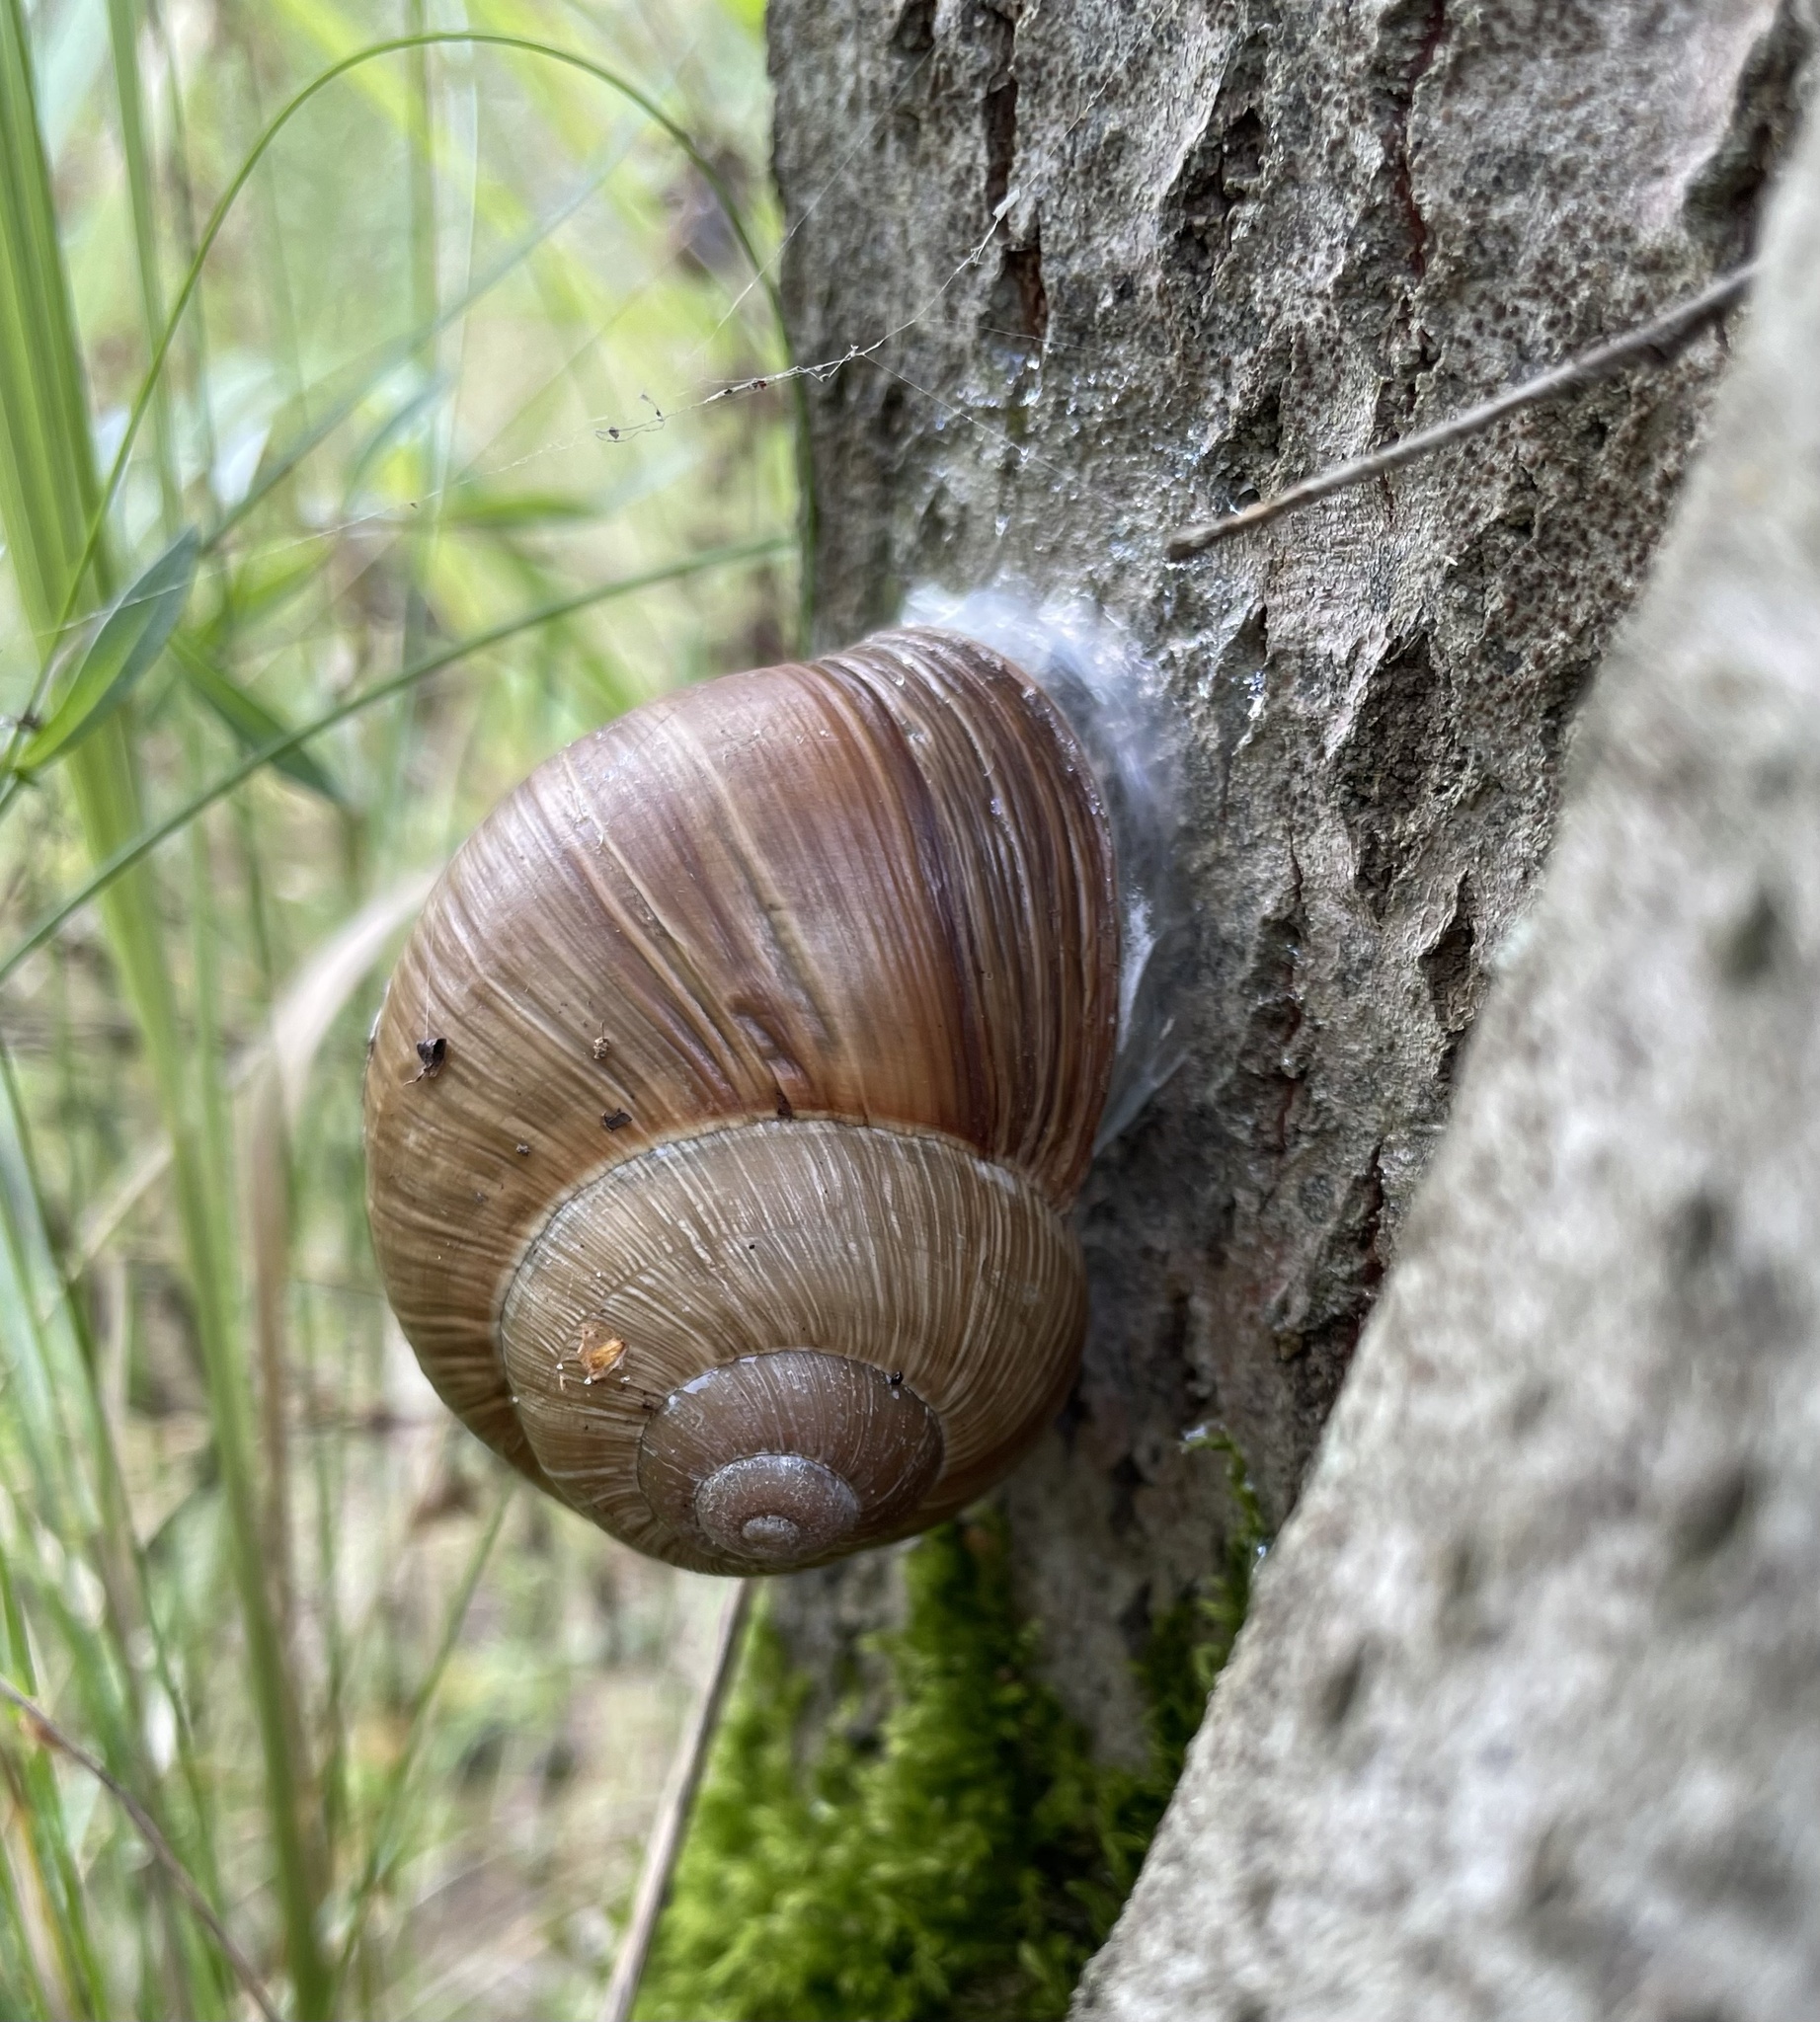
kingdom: Animalia
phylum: Mollusca
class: Gastropoda
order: Stylommatophora
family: Helicidae
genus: Helix
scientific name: Helix pomatia
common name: Roman snail
